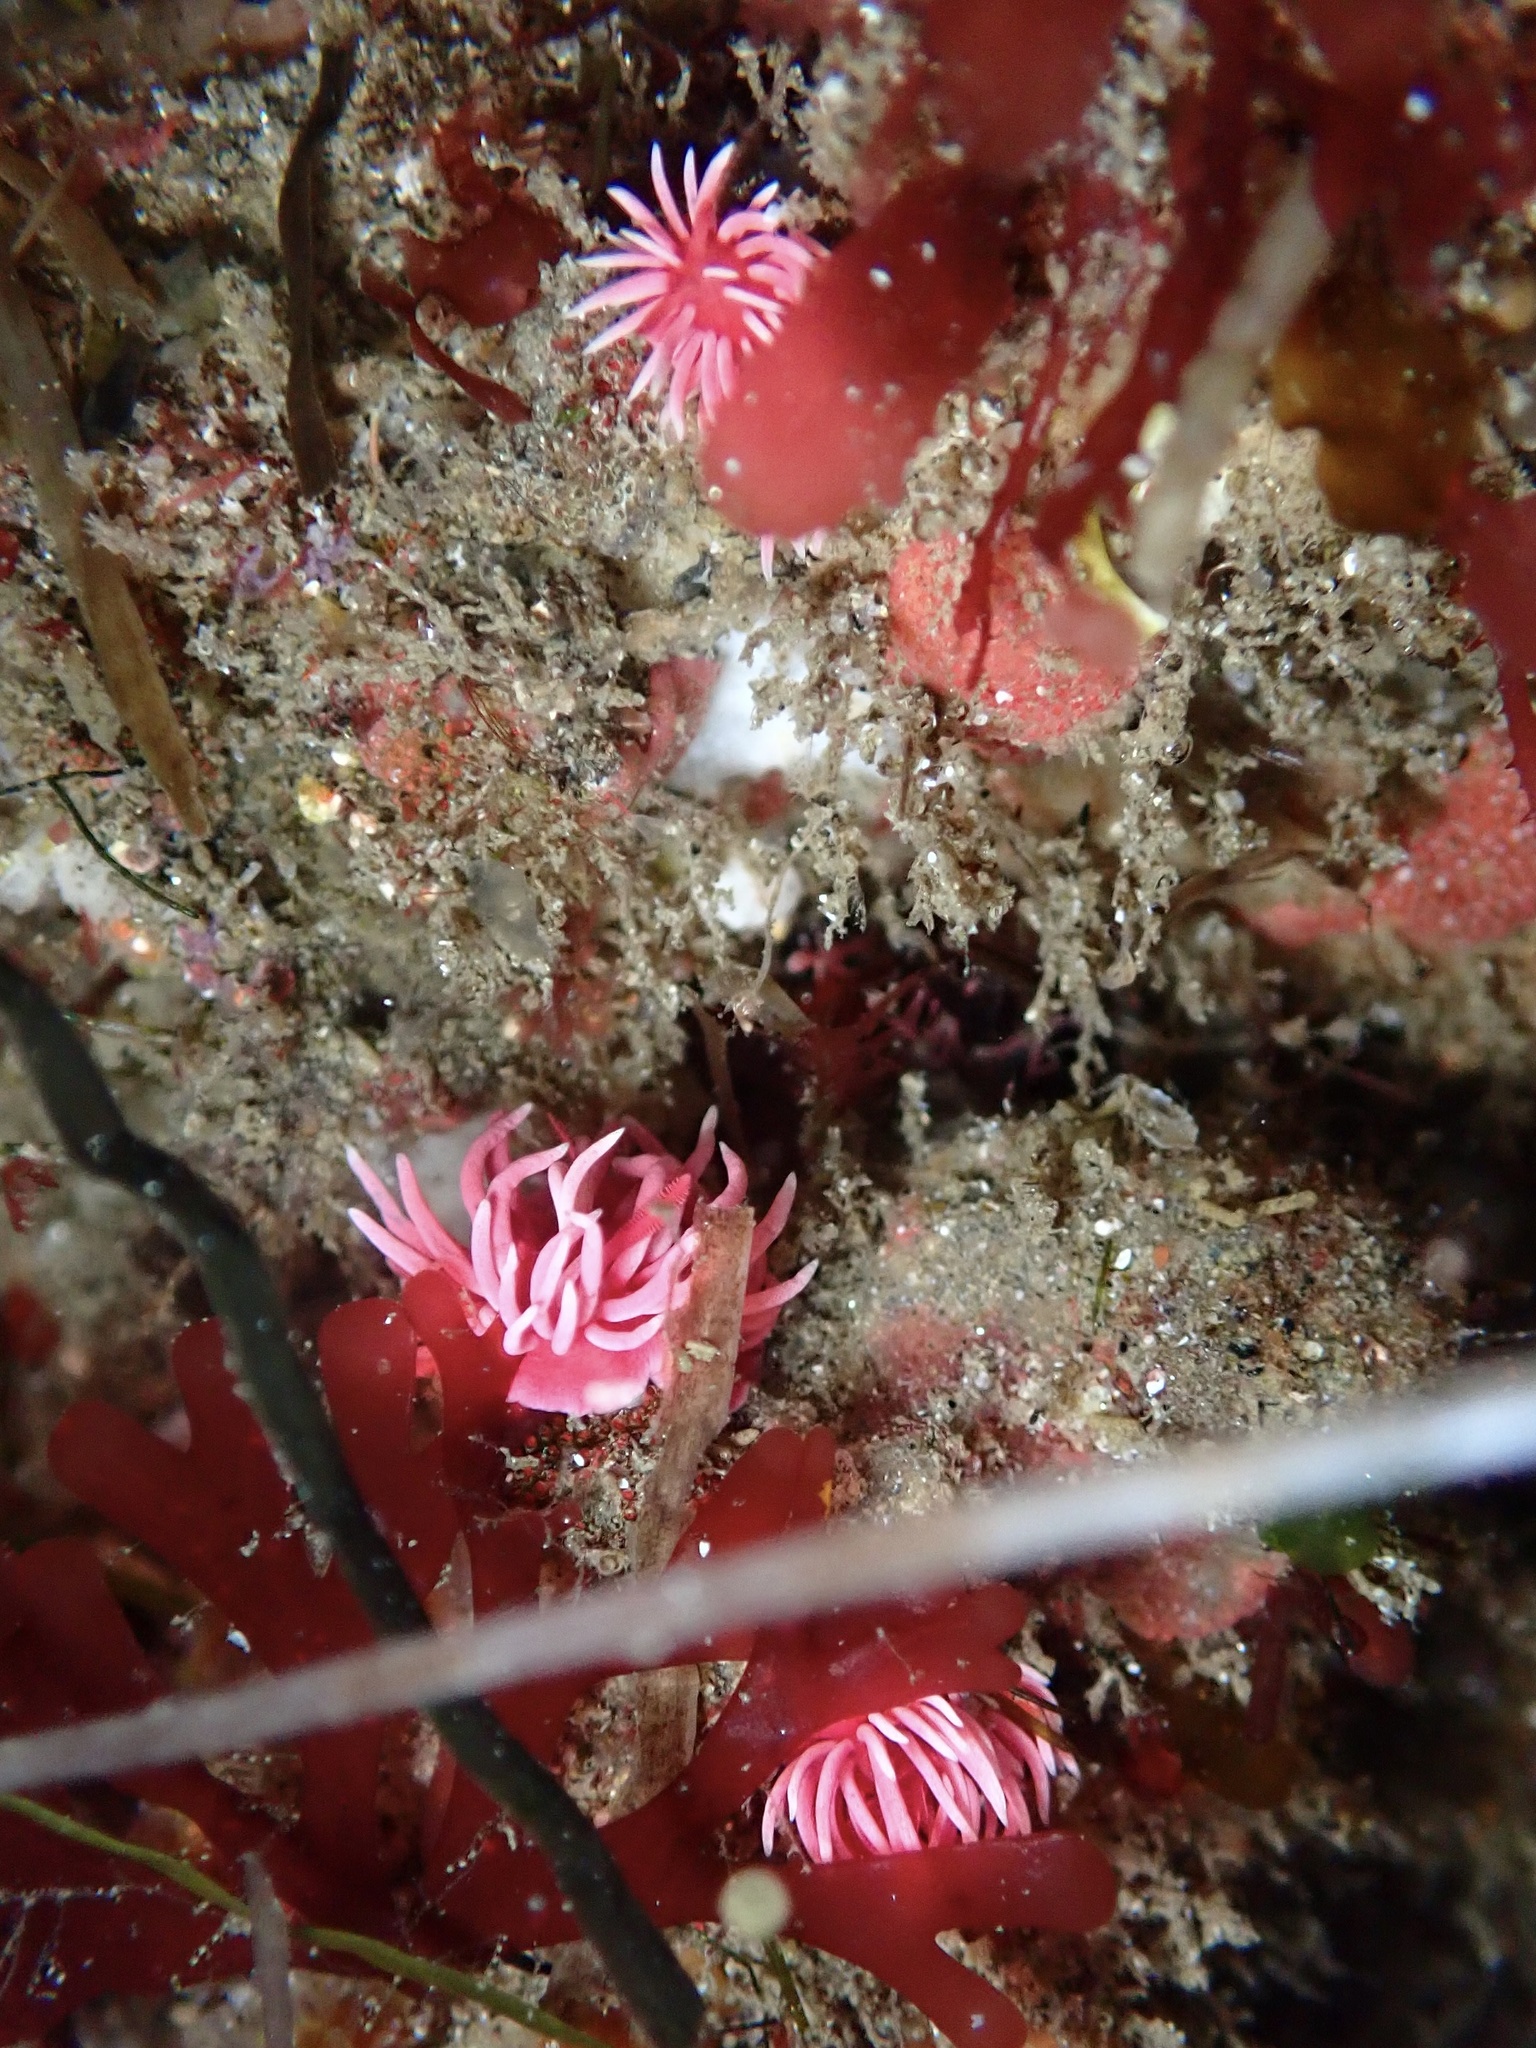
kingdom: Animalia
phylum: Mollusca
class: Gastropoda
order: Nudibranchia
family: Goniodorididae
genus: Okenia
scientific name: Okenia
